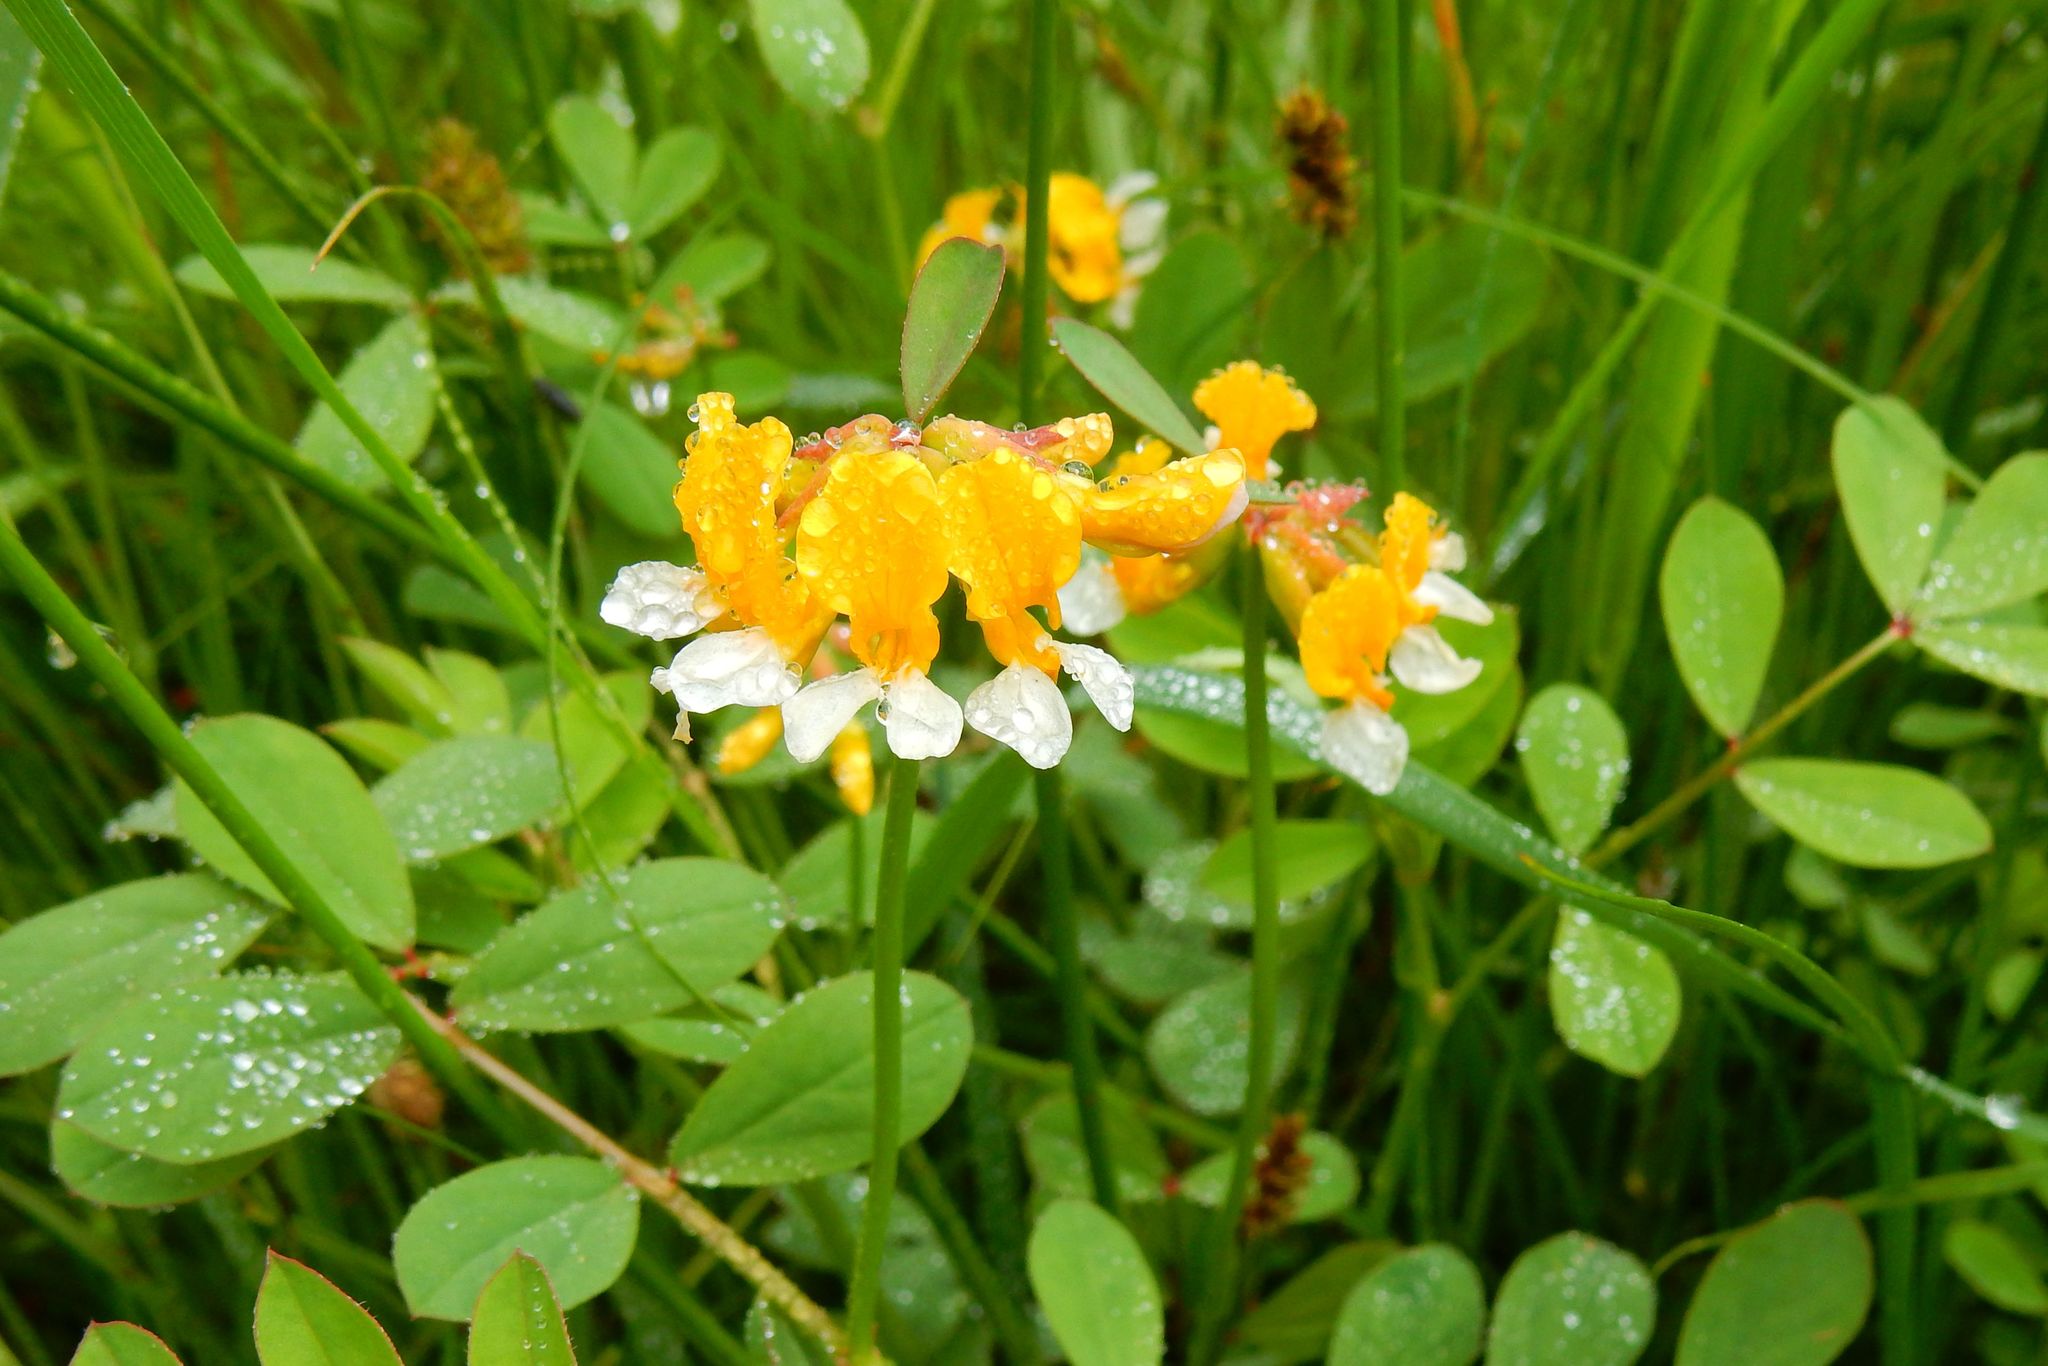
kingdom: Plantae
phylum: Tracheophyta
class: Magnoliopsida
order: Fabales
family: Fabaceae
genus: Hosackia
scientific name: Hosackia pinnata
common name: Bog bird's-foot trefoil
